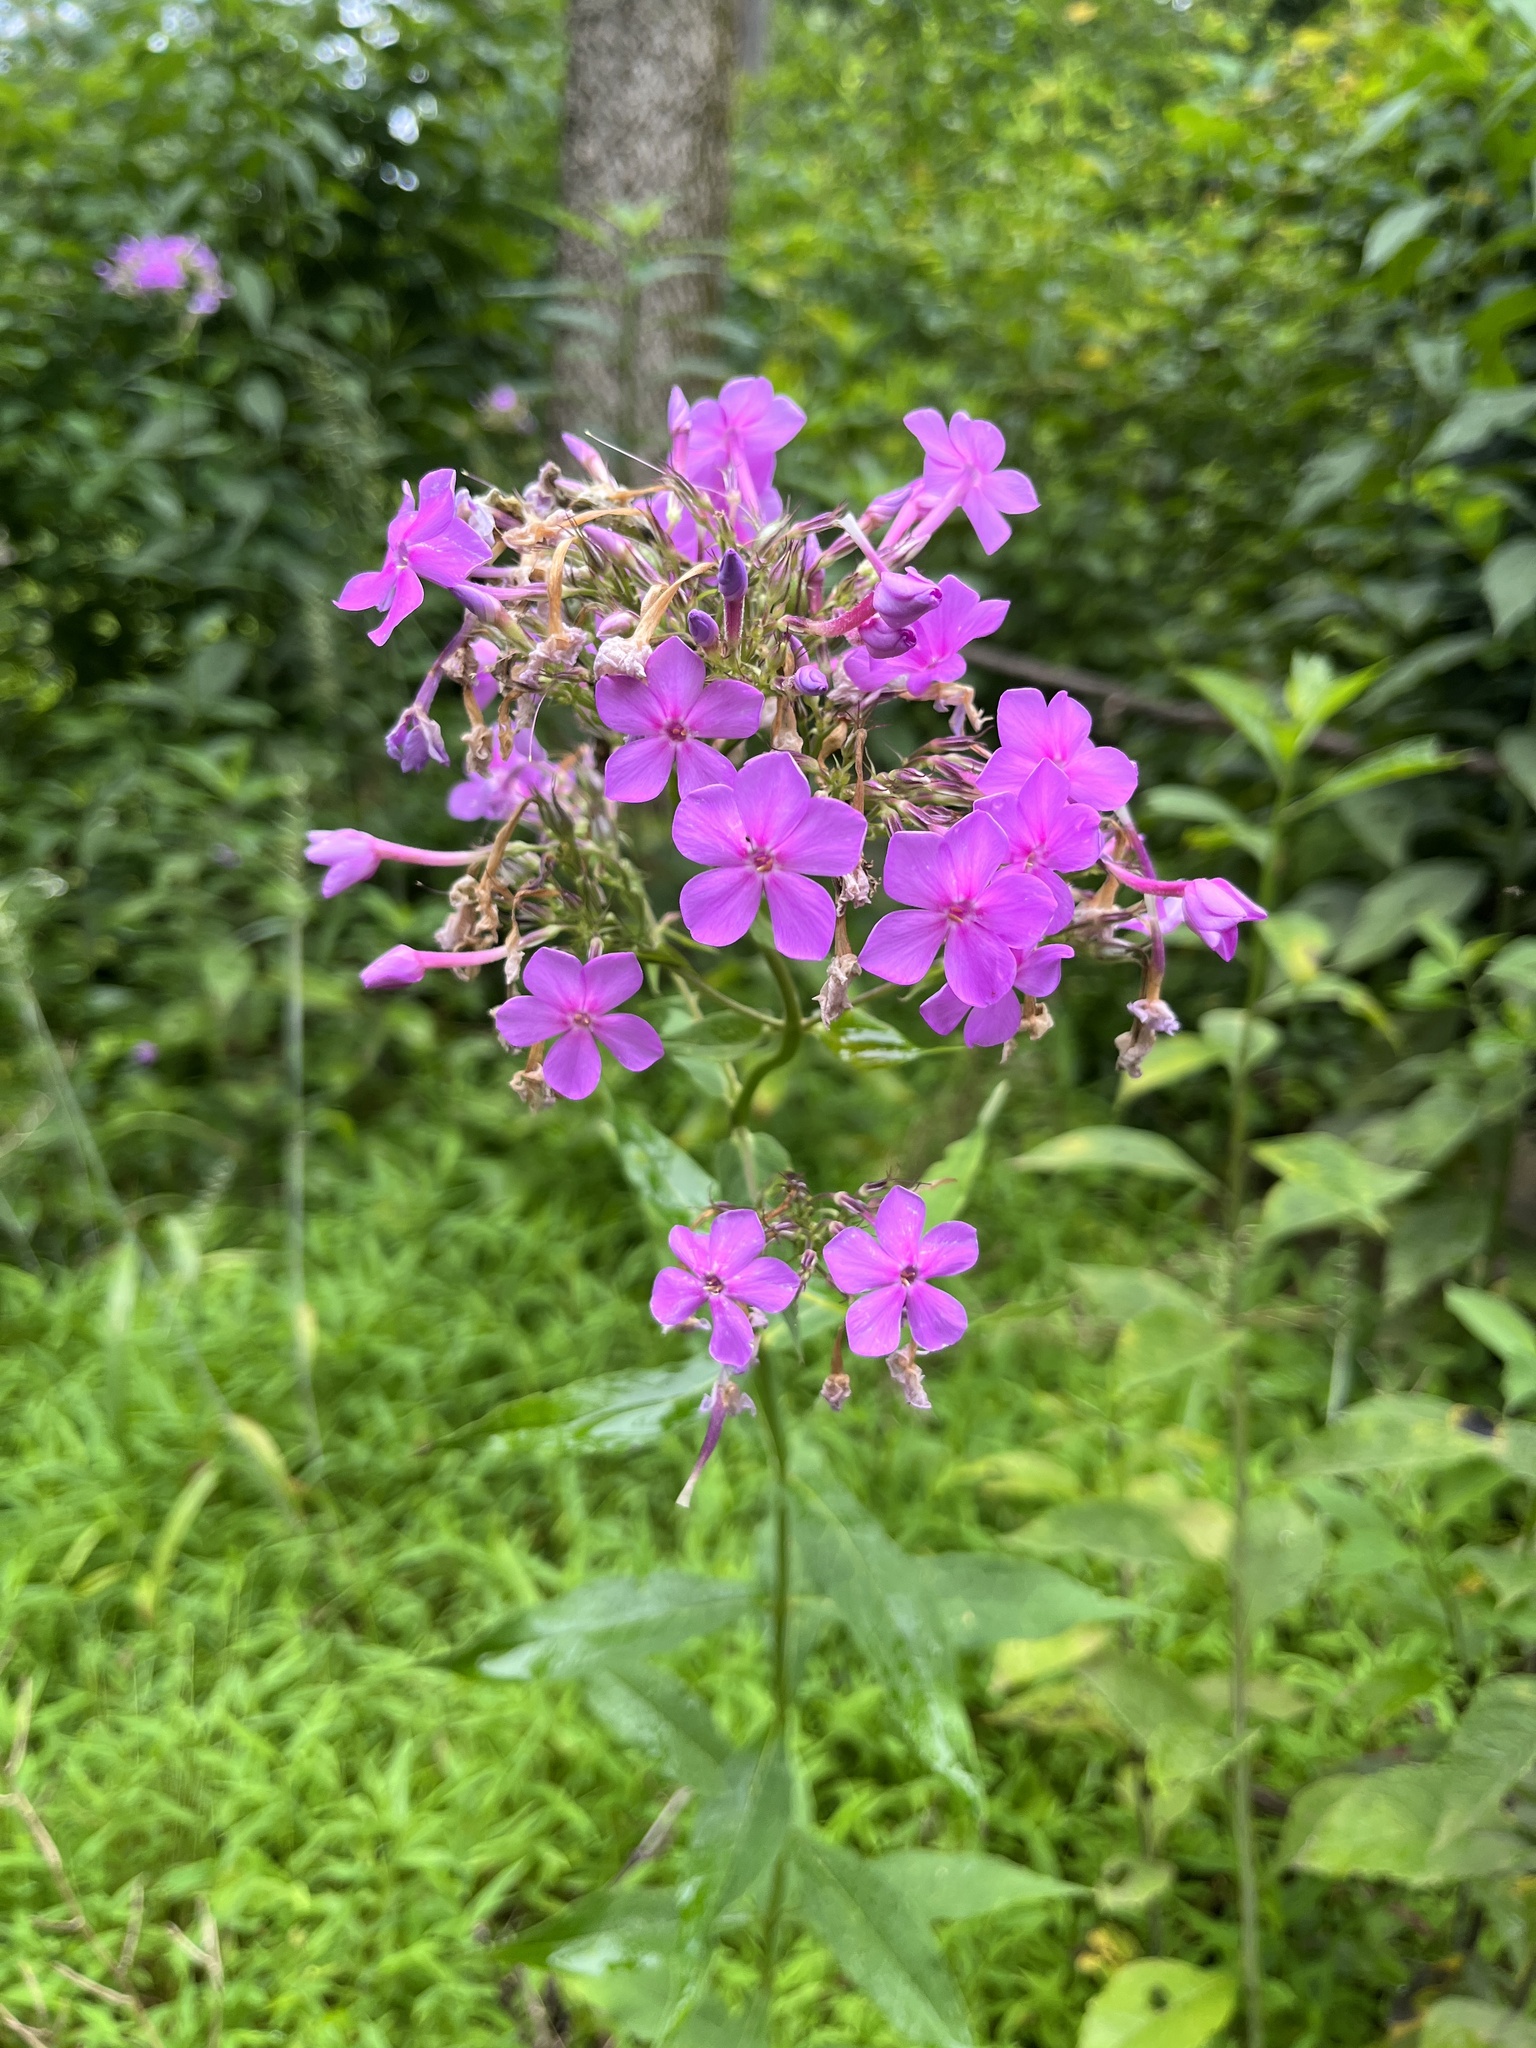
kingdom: Plantae
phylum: Tracheophyta
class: Magnoliopsida
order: Ericales
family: Polemoniaceae
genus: Phlox
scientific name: Phlox paniculata
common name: Fall phlox
